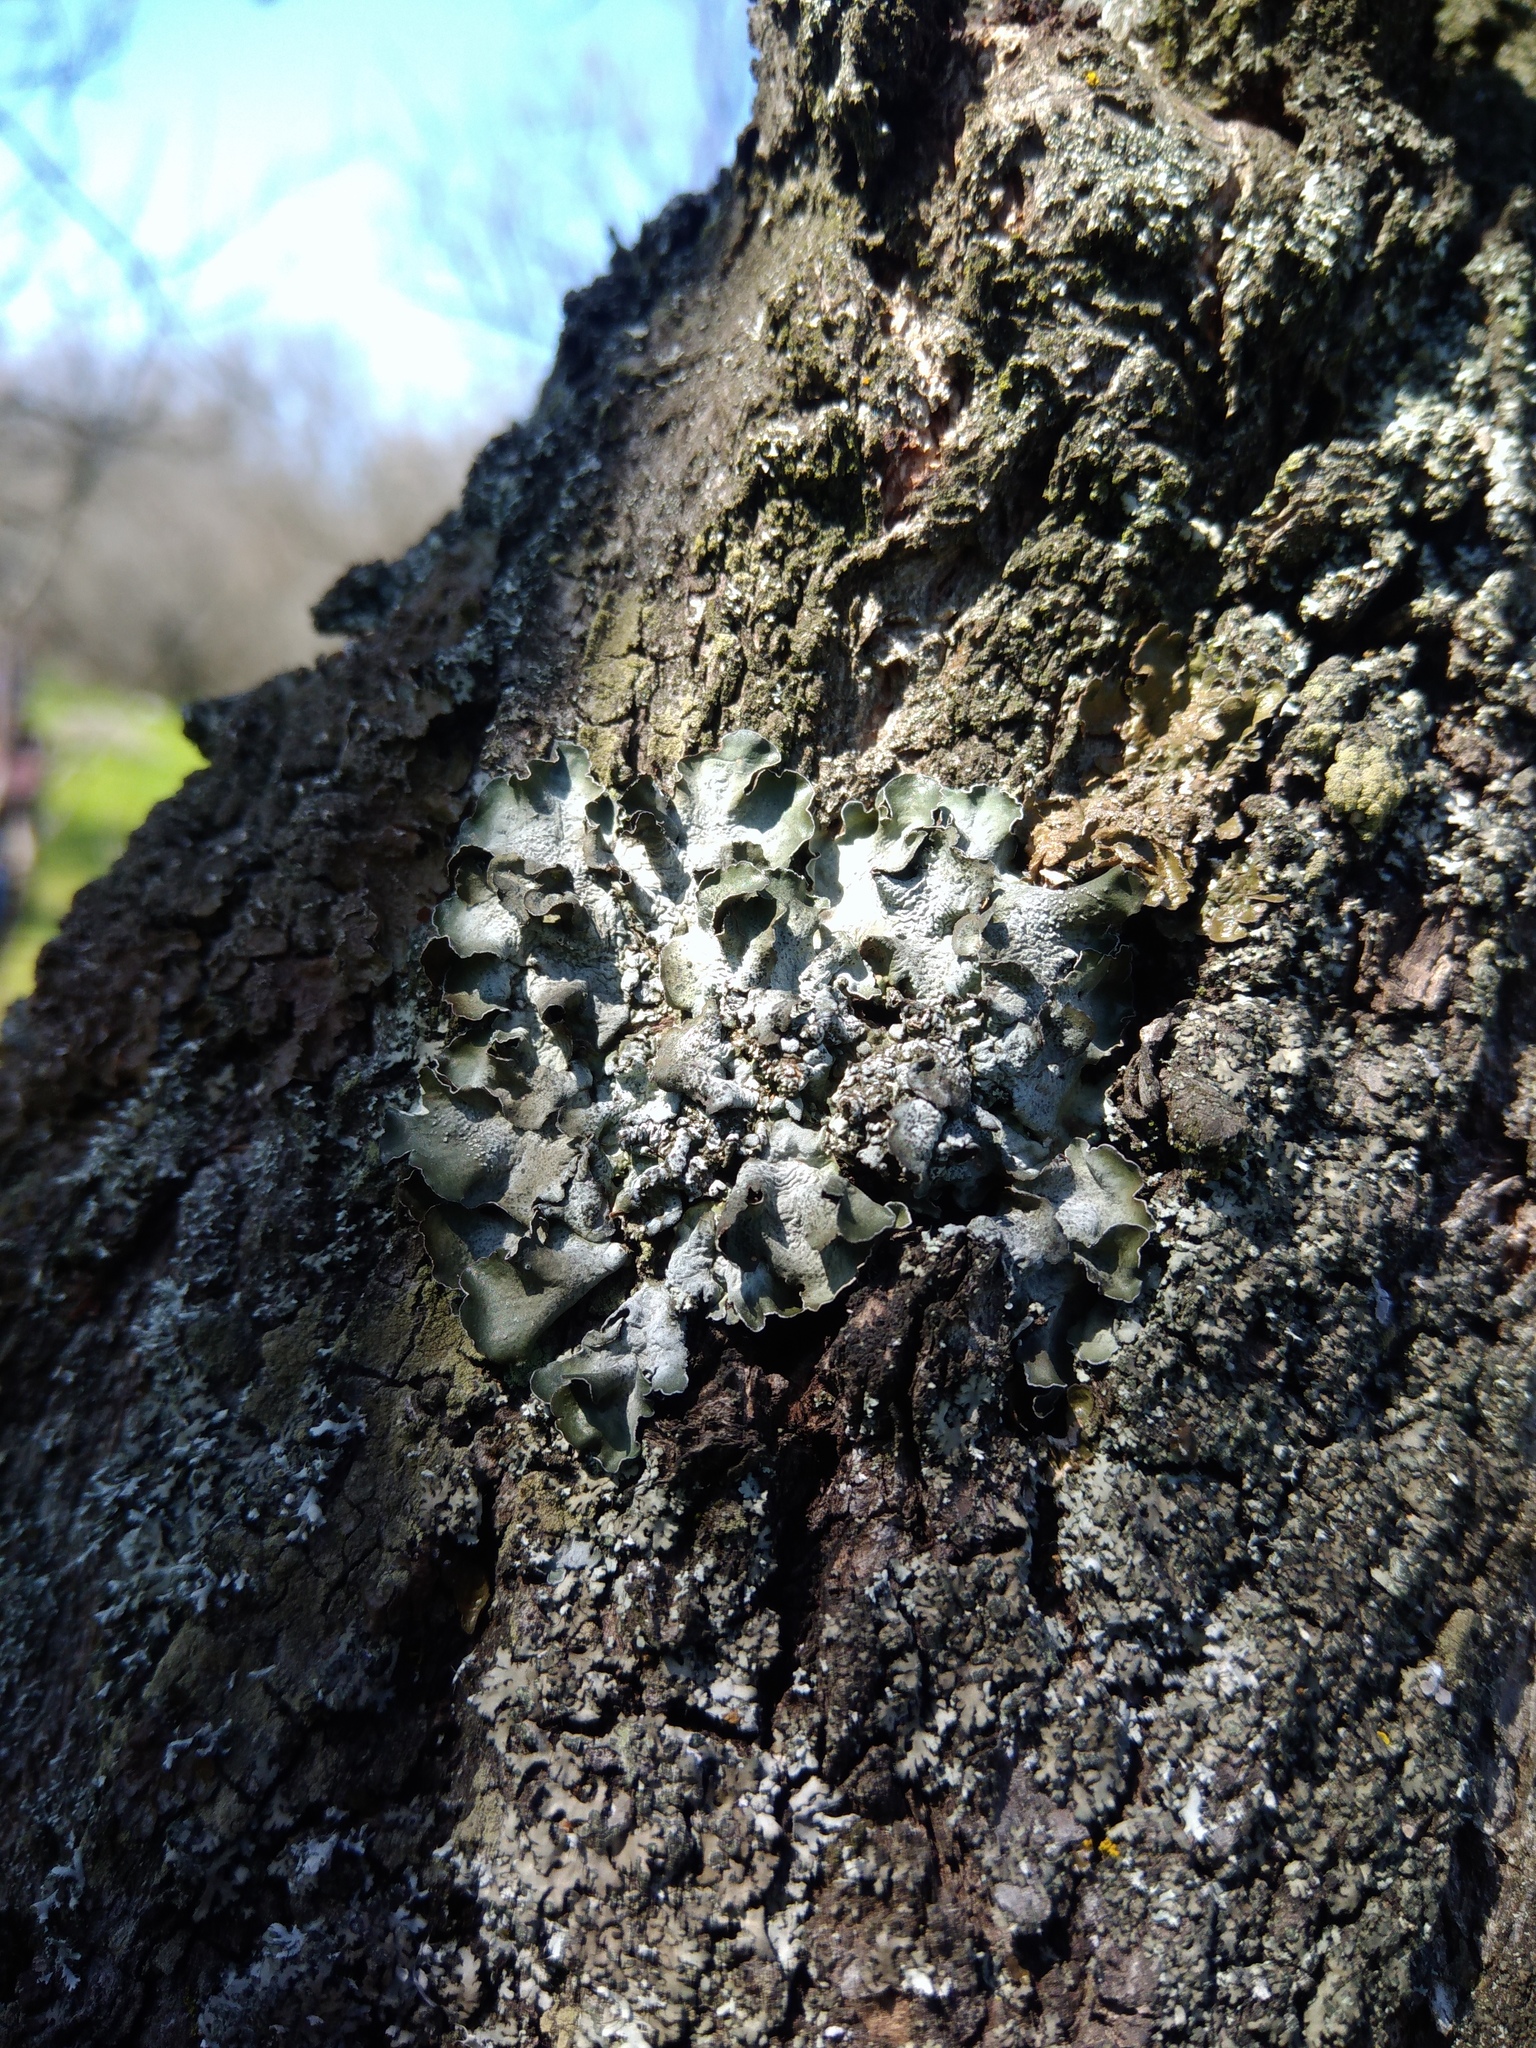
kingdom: Fungi
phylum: Ascomycota
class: Lecanoromycetes
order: Lecanorales
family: Parmeliaceae
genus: Pleurosticta
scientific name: Pleurosticta acetabulum
